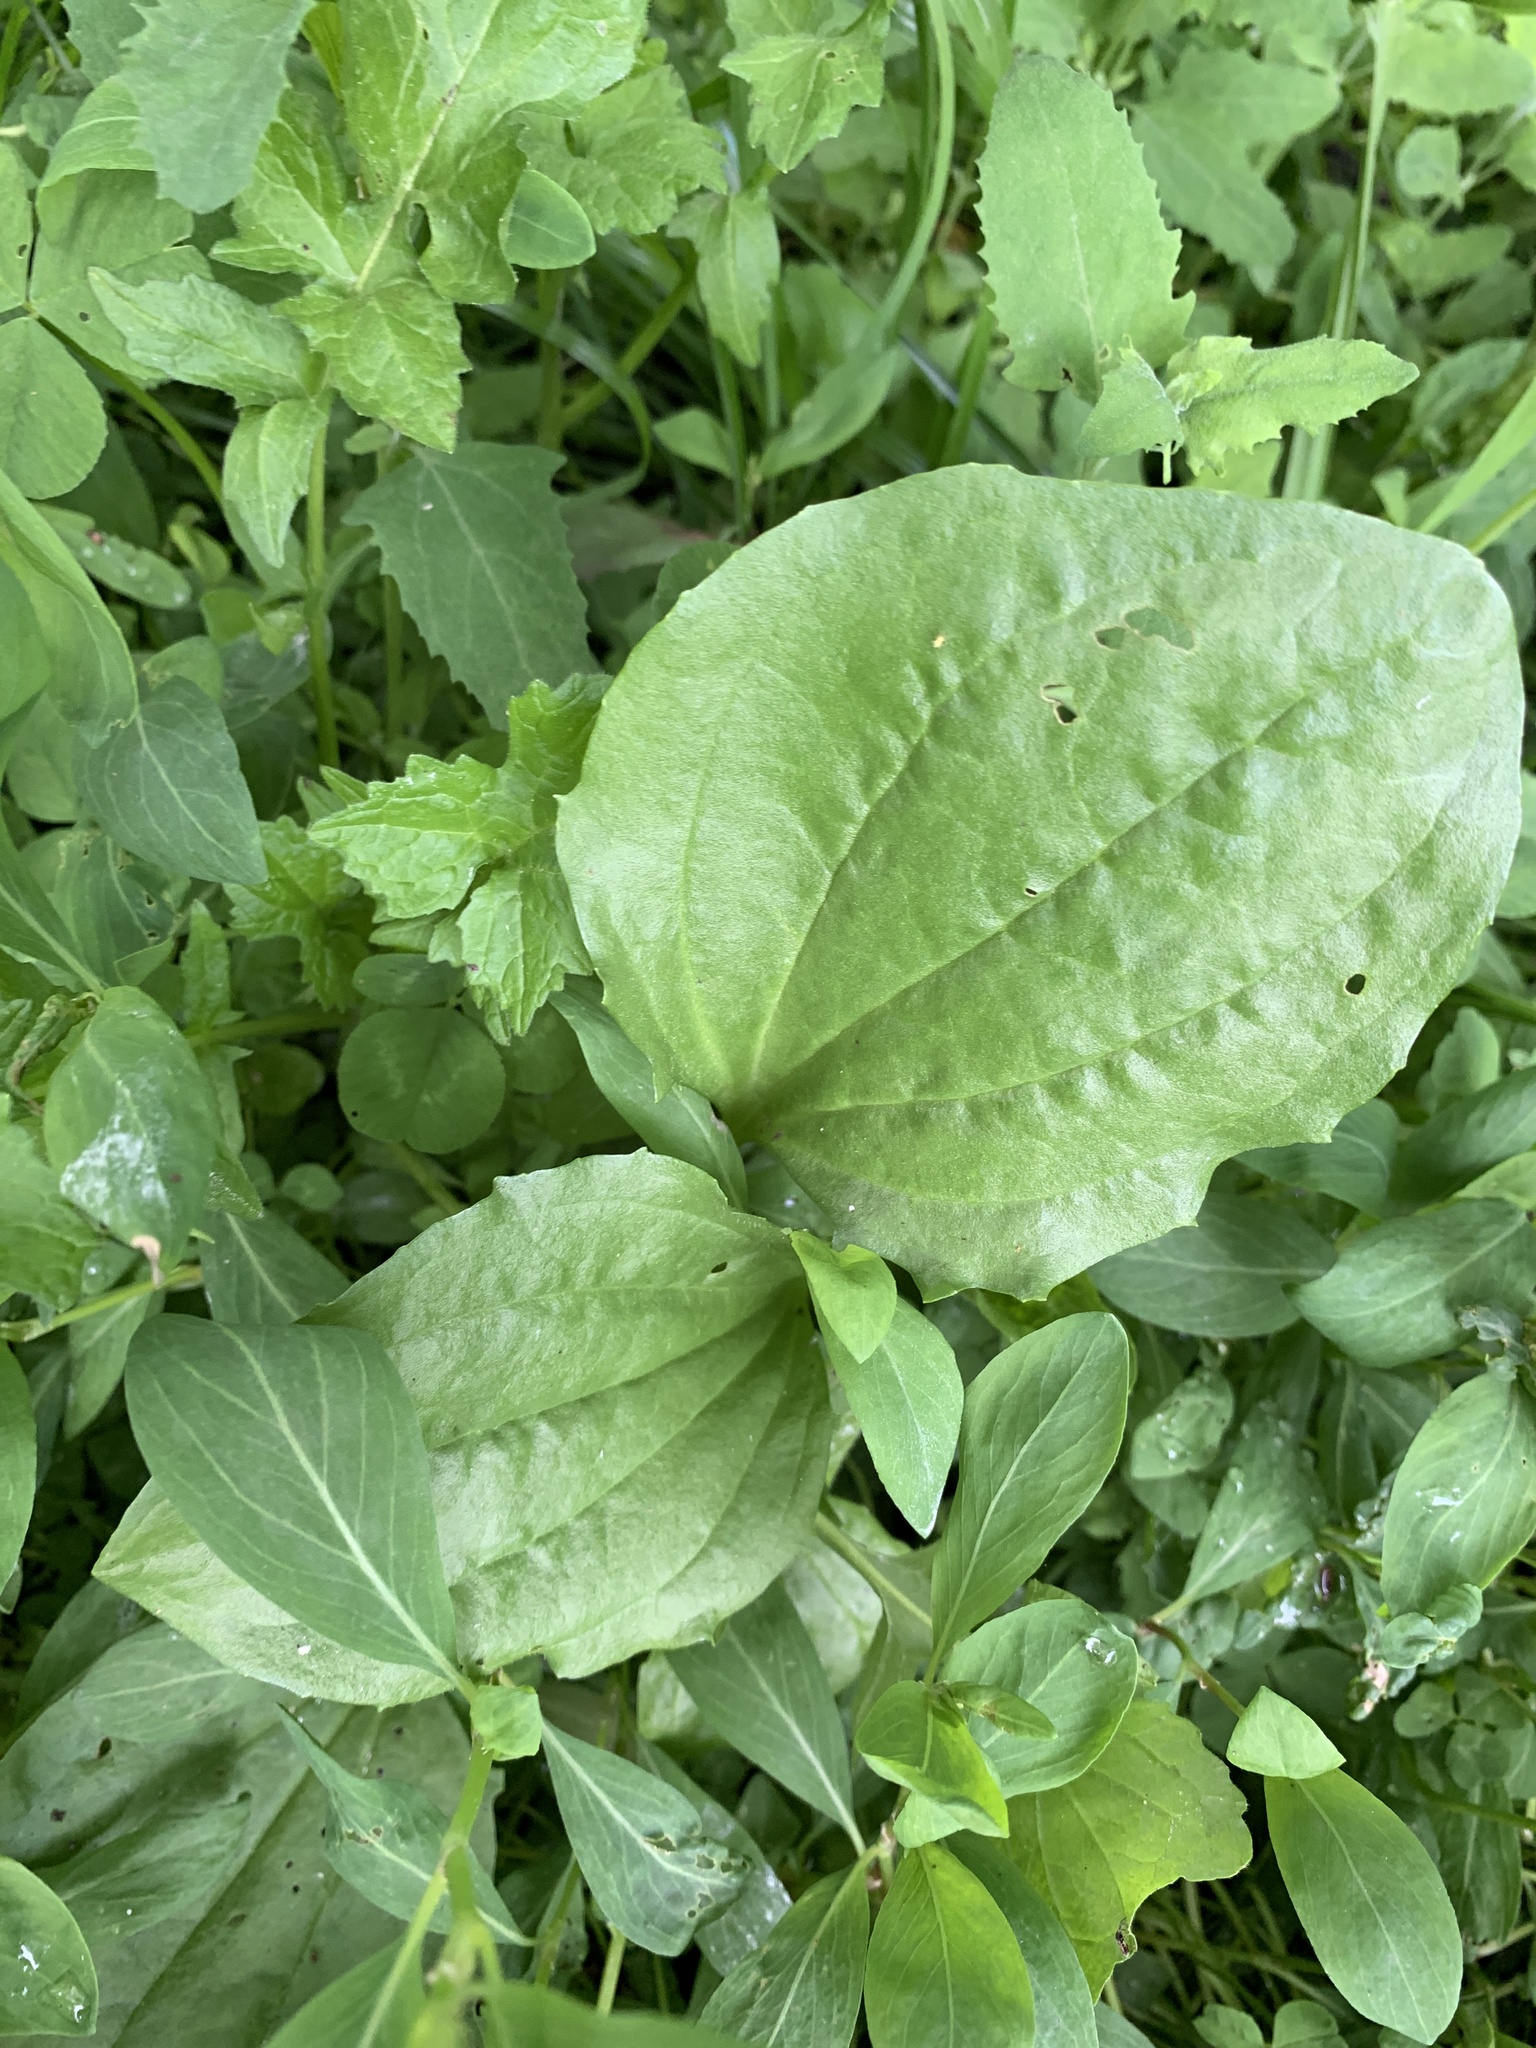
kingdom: Plantae
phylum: Tracheophyta
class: Magnoliopsida
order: Lamiales
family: Plantaginaceae
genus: Plantago
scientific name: Plantago major
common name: Common plantain
